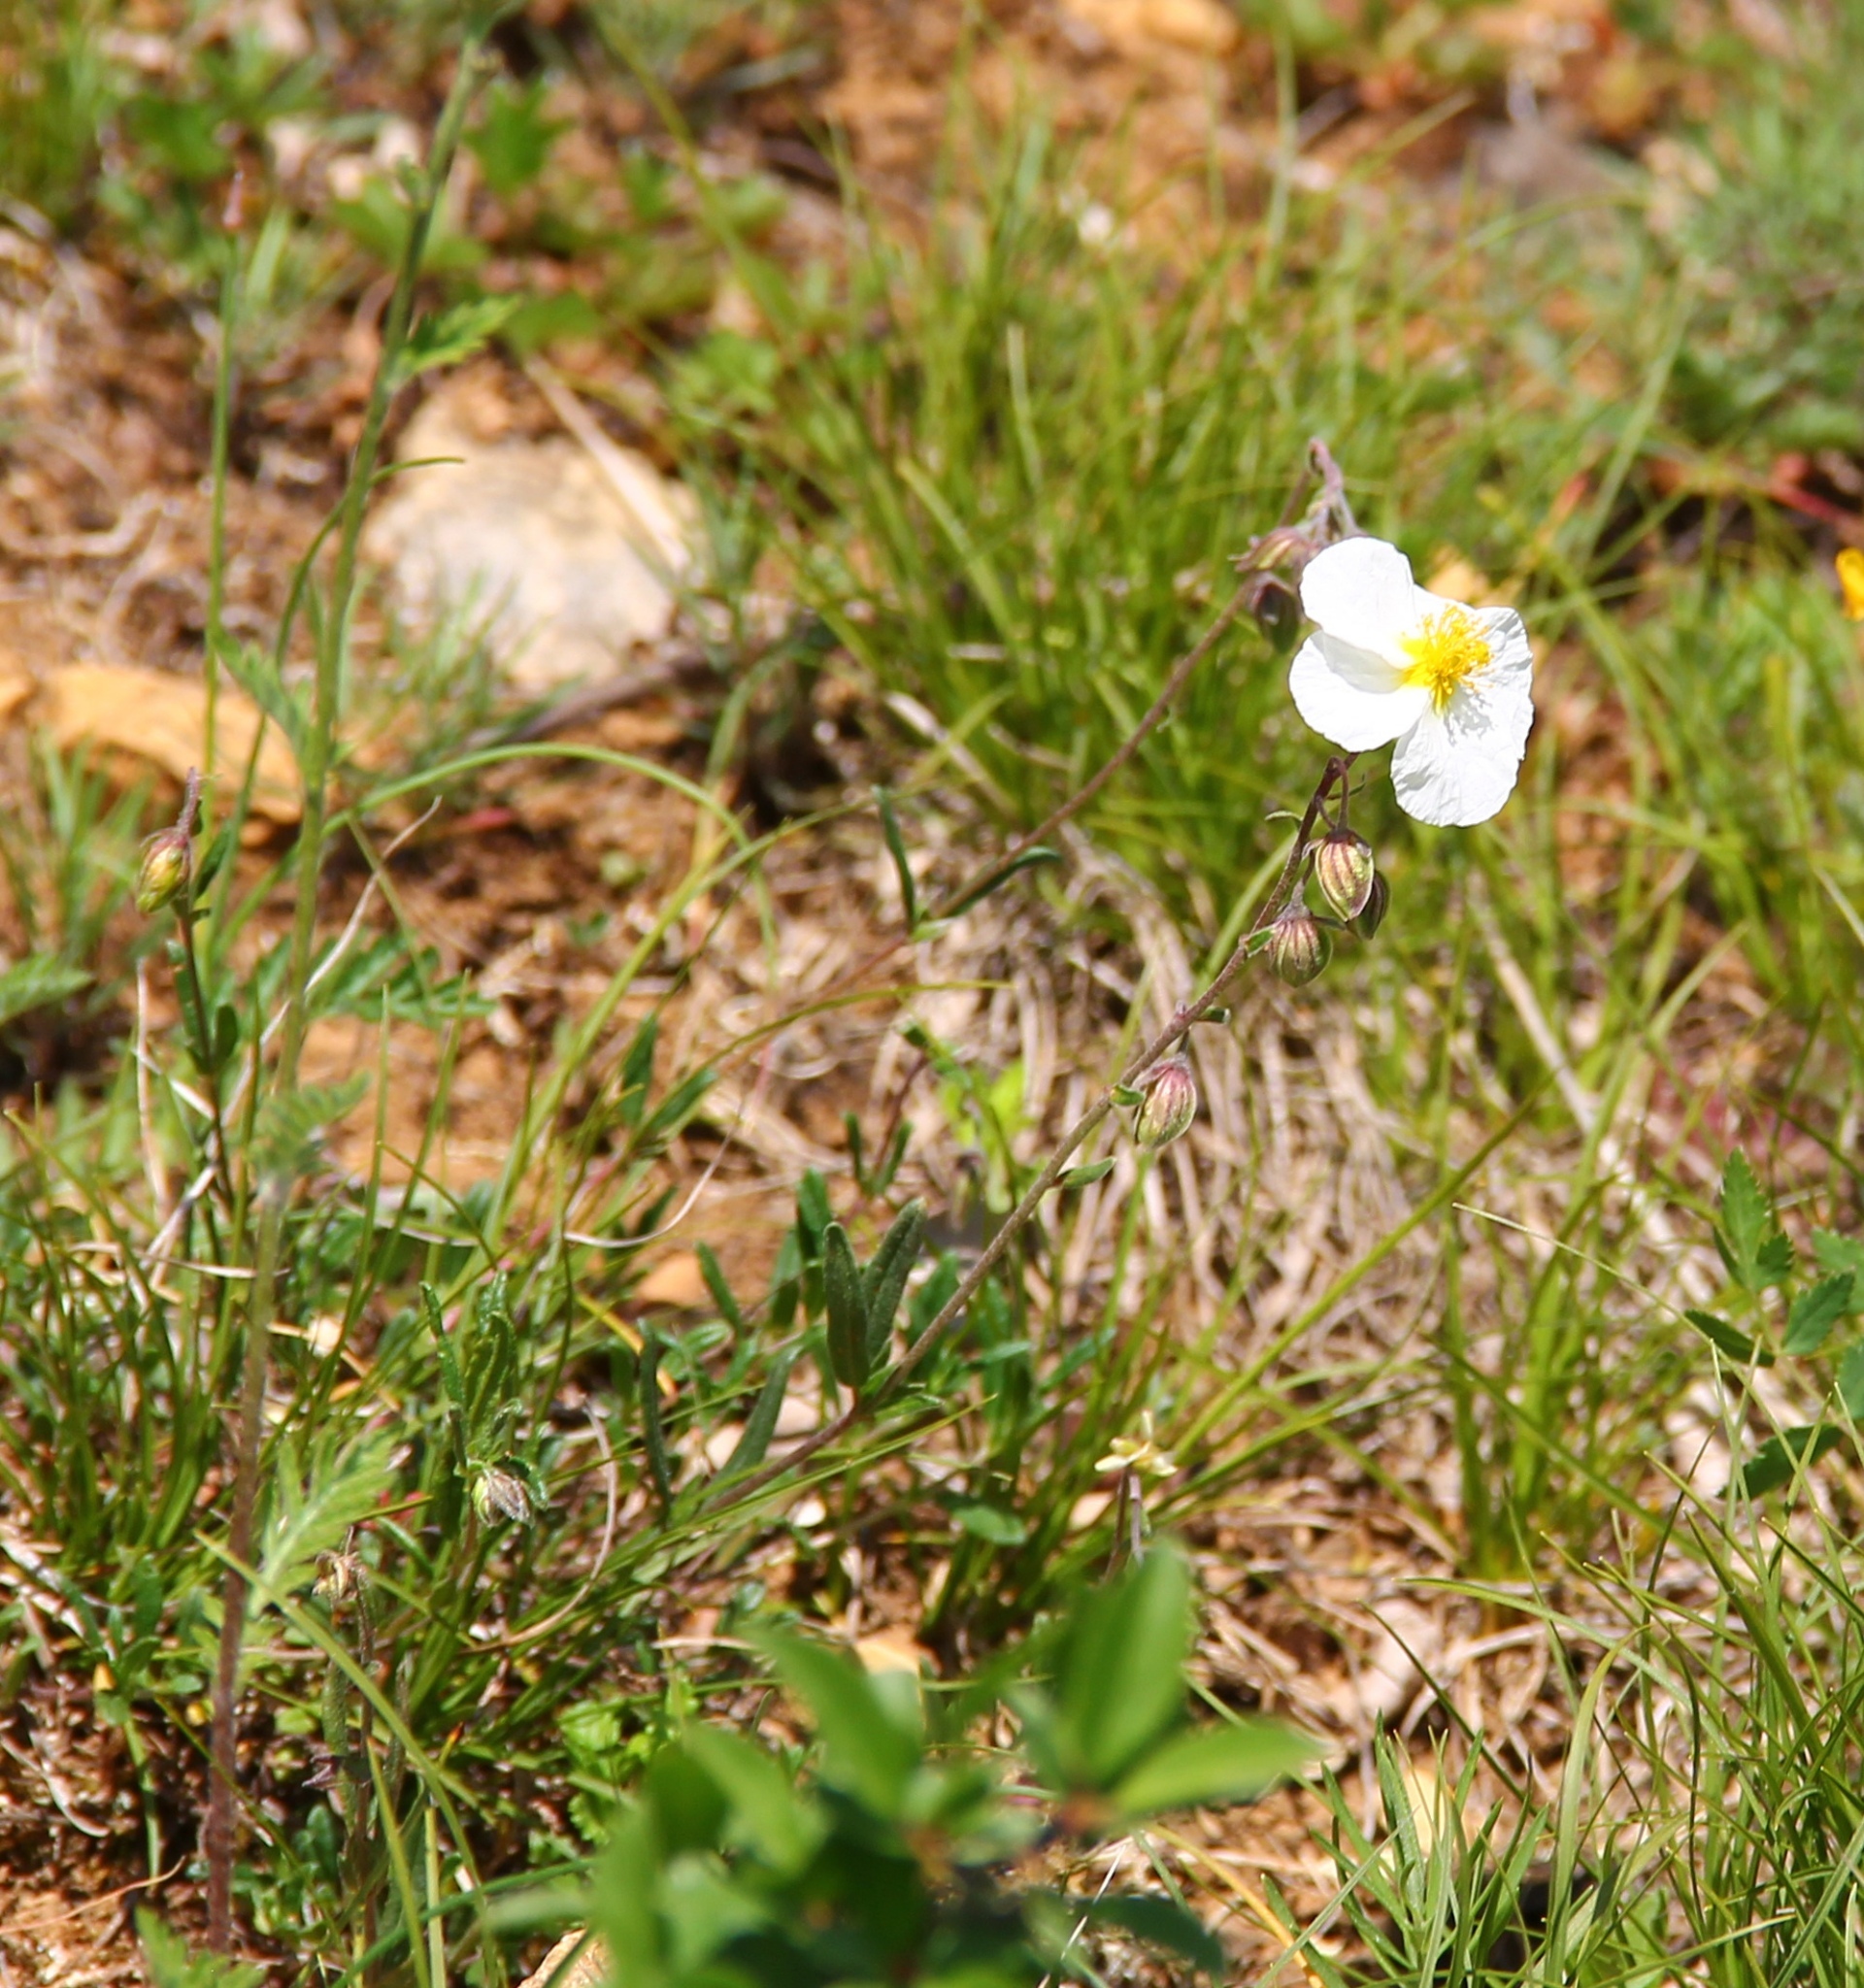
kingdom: Plantae
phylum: Tracheophyta
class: Magnoliopsida
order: Malvales
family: Cistaceae
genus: Helianthemum
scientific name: Helianthemum apenninum
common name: White rock-rose
